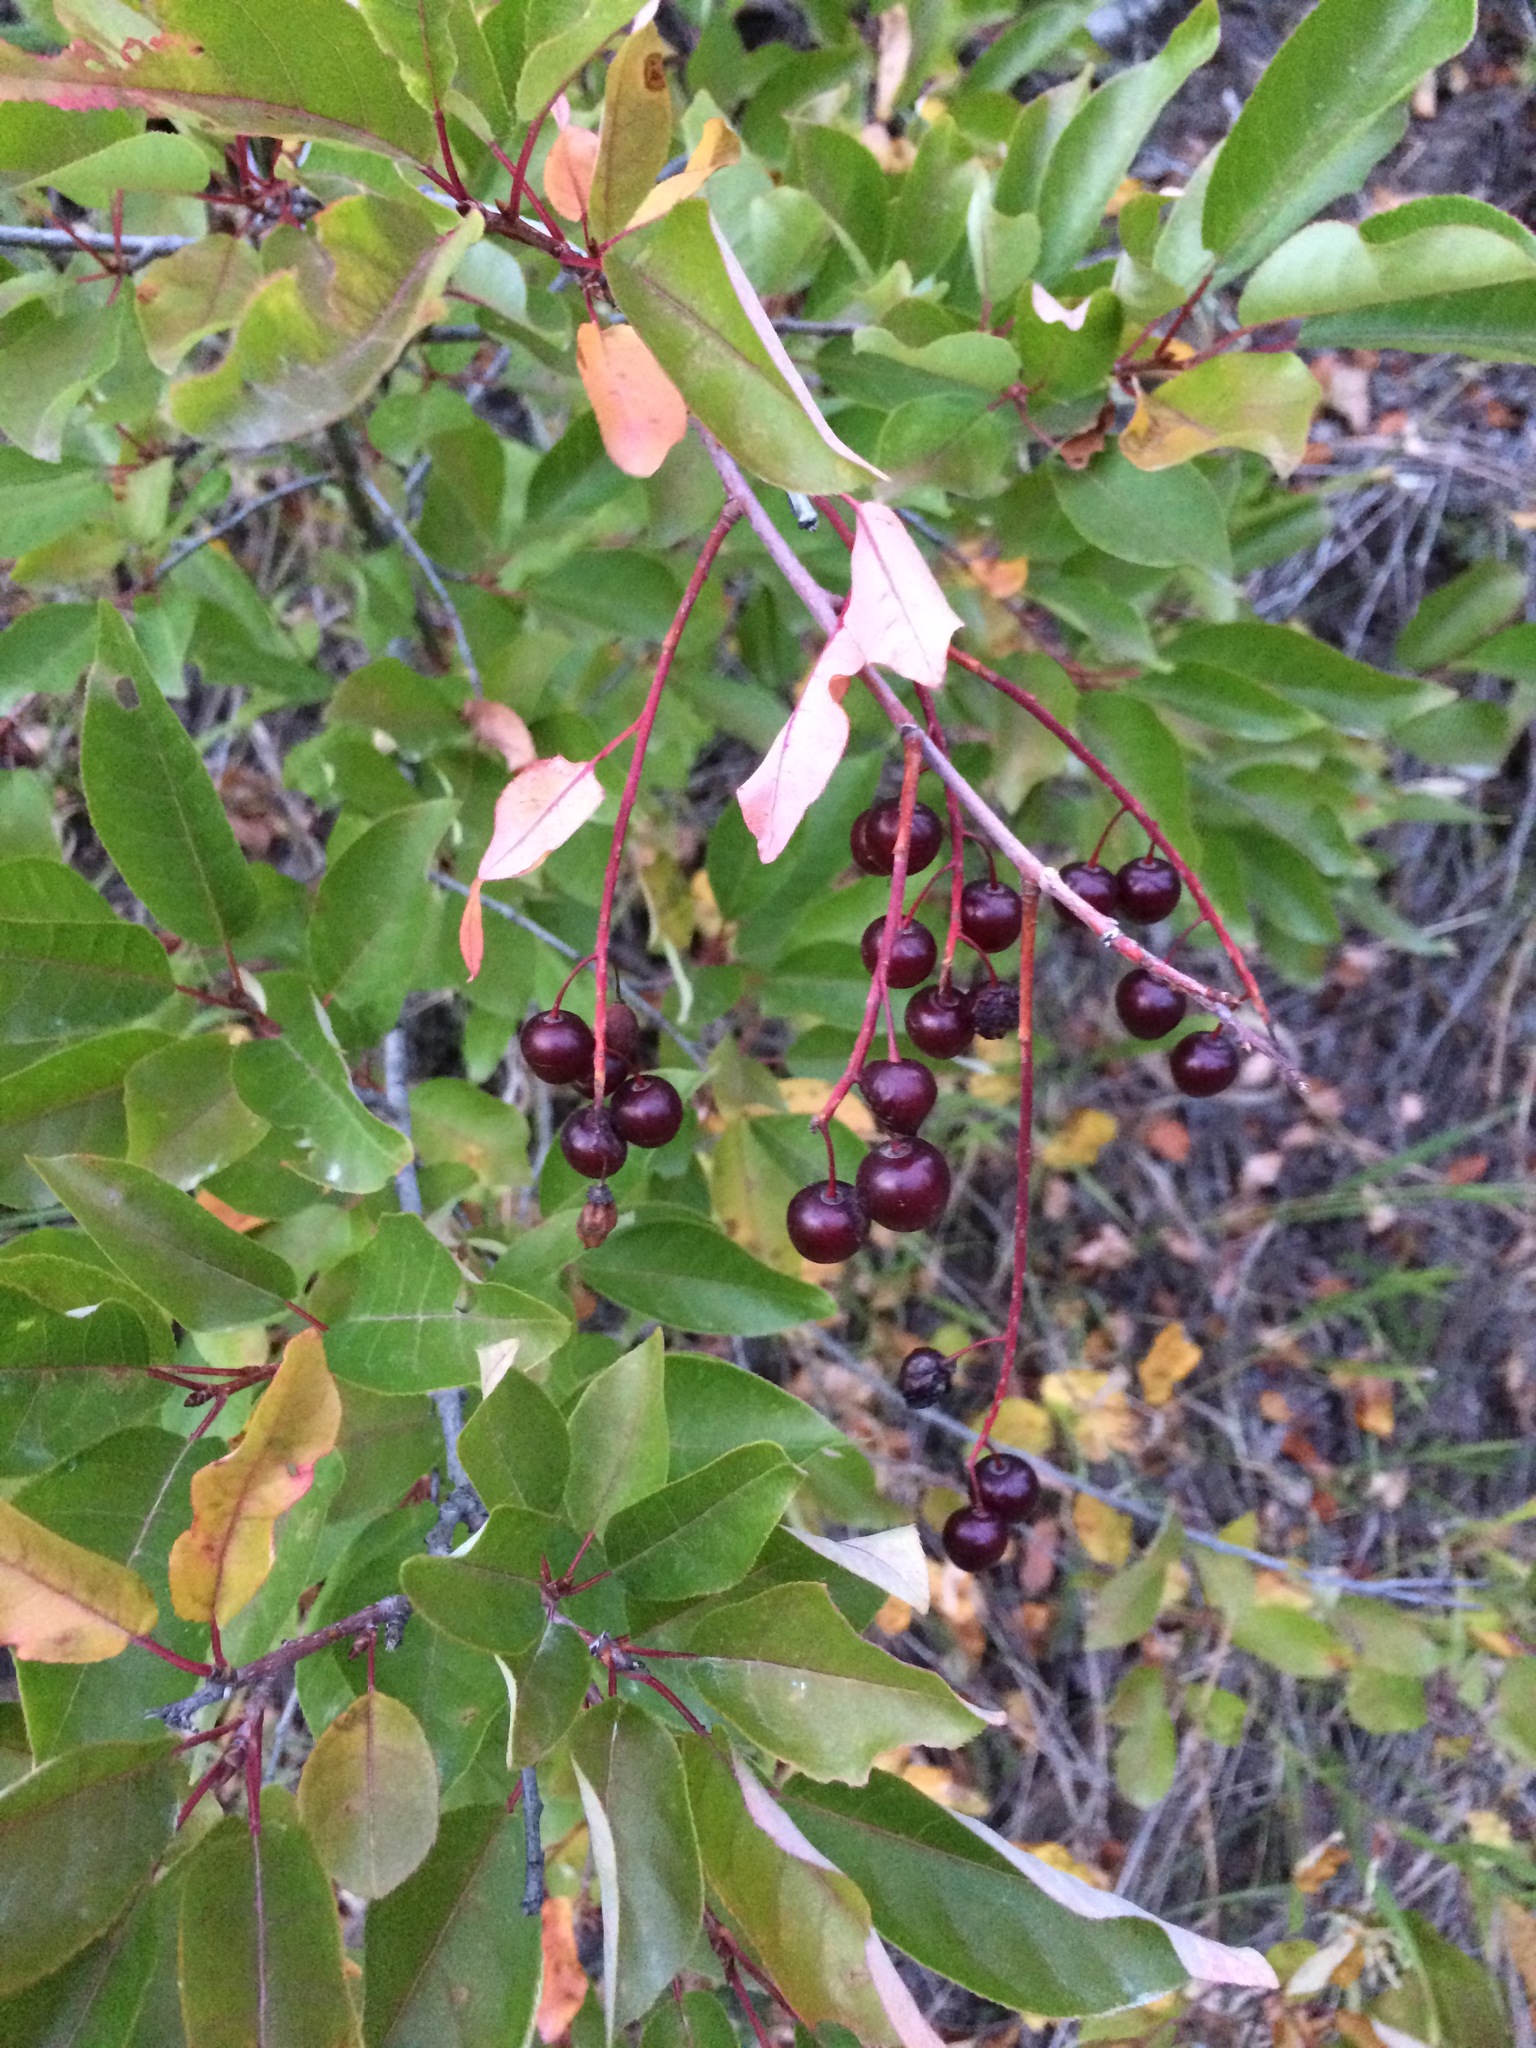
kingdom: Plantae
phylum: Tracheophyta
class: Magnoliopsida
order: Rosales
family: Rosaceae
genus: Prunus
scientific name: Prunus virginiana
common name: Chokecherry
